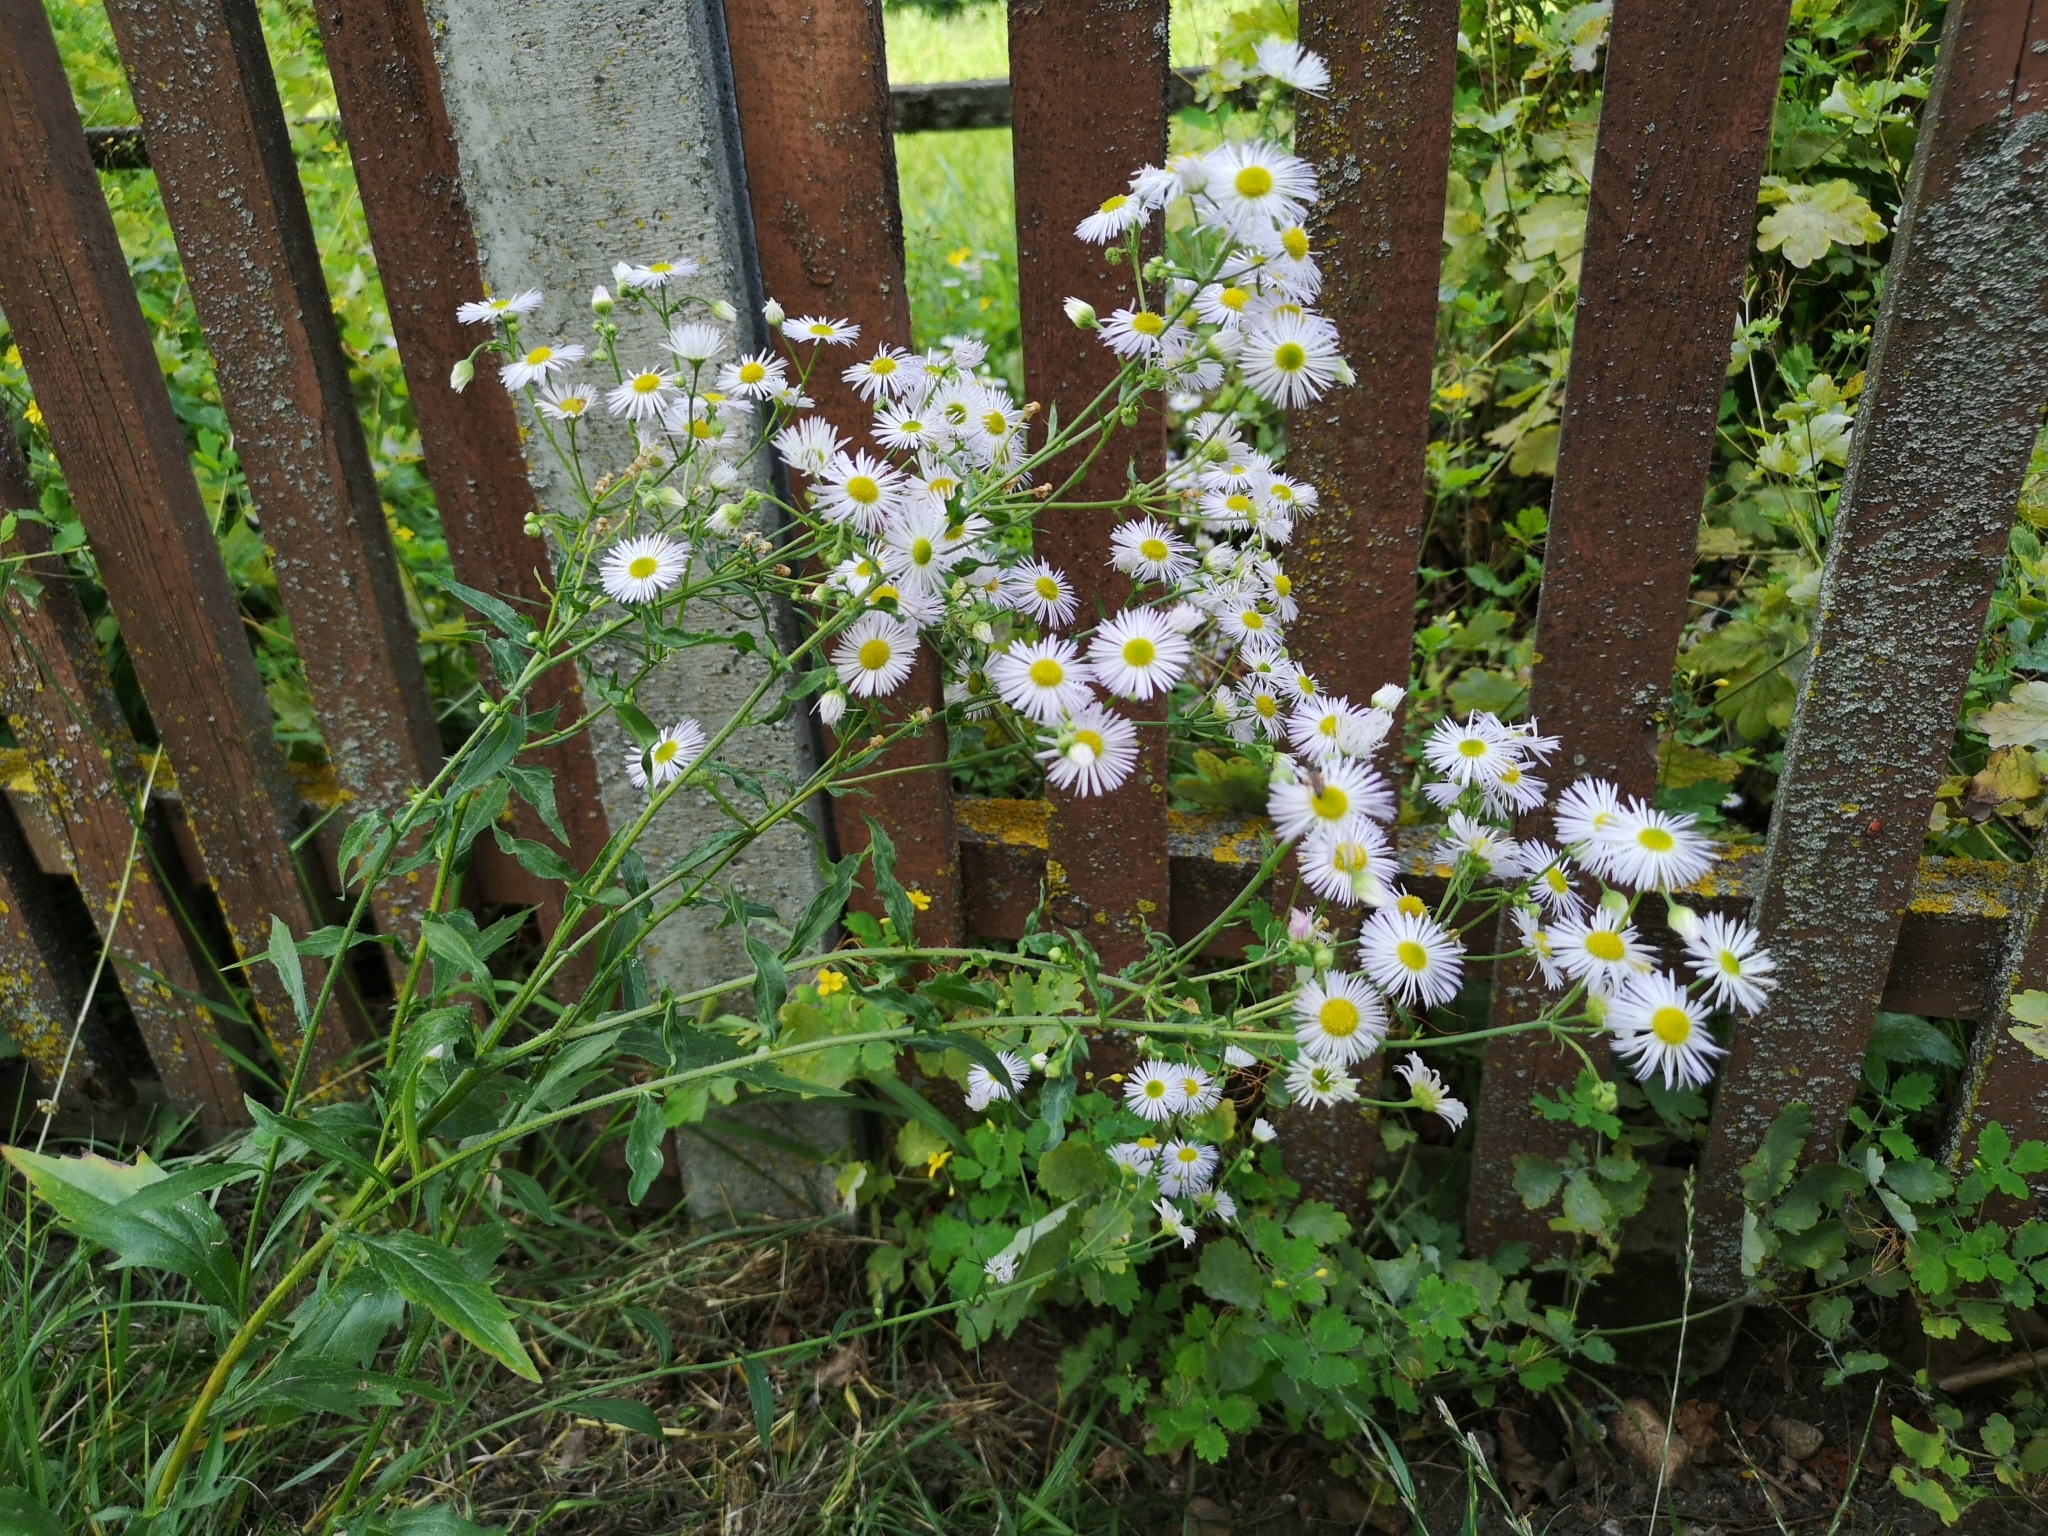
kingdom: Plantae
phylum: Tracheophyta
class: Magnoliopsida
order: Asterales
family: Asteraceae
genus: Erigeron
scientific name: Erigeron annuus
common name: Tall fleabane
